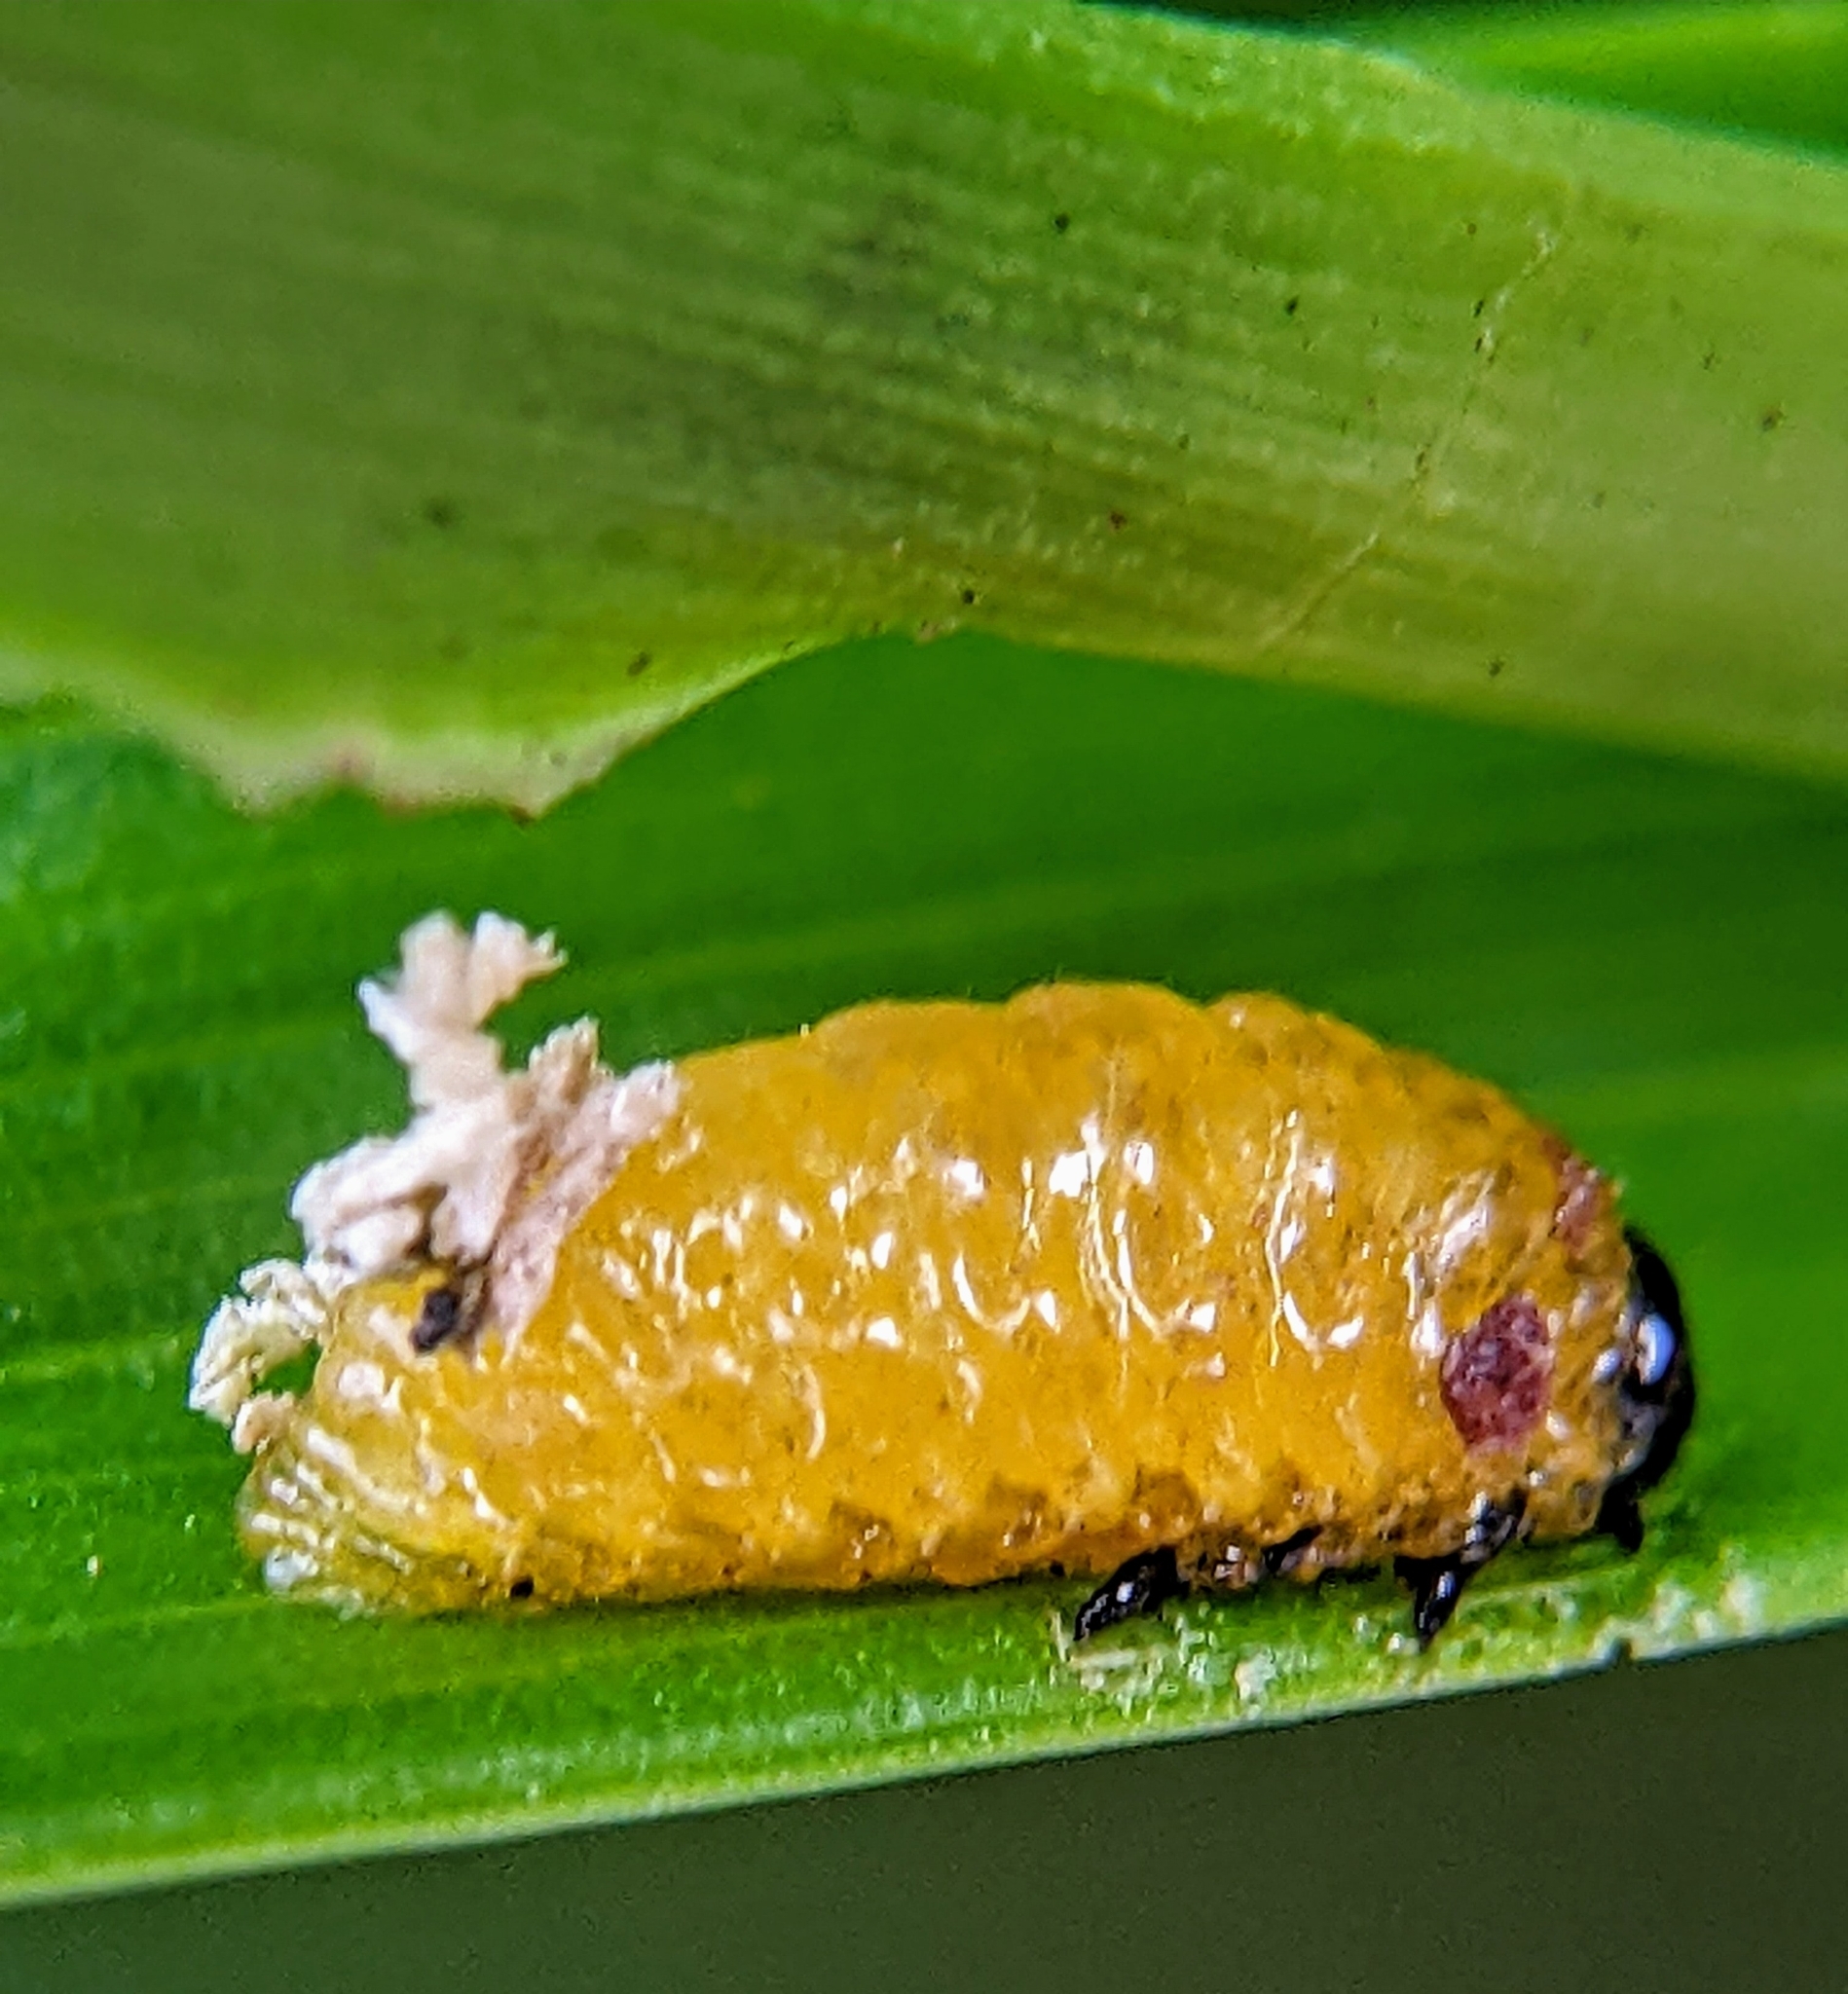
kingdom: Animalia
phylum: Arthropoda
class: Insecta
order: Coleoptera
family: Chrysomelidae
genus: Baliosus
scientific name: Baliosus pectoralis
